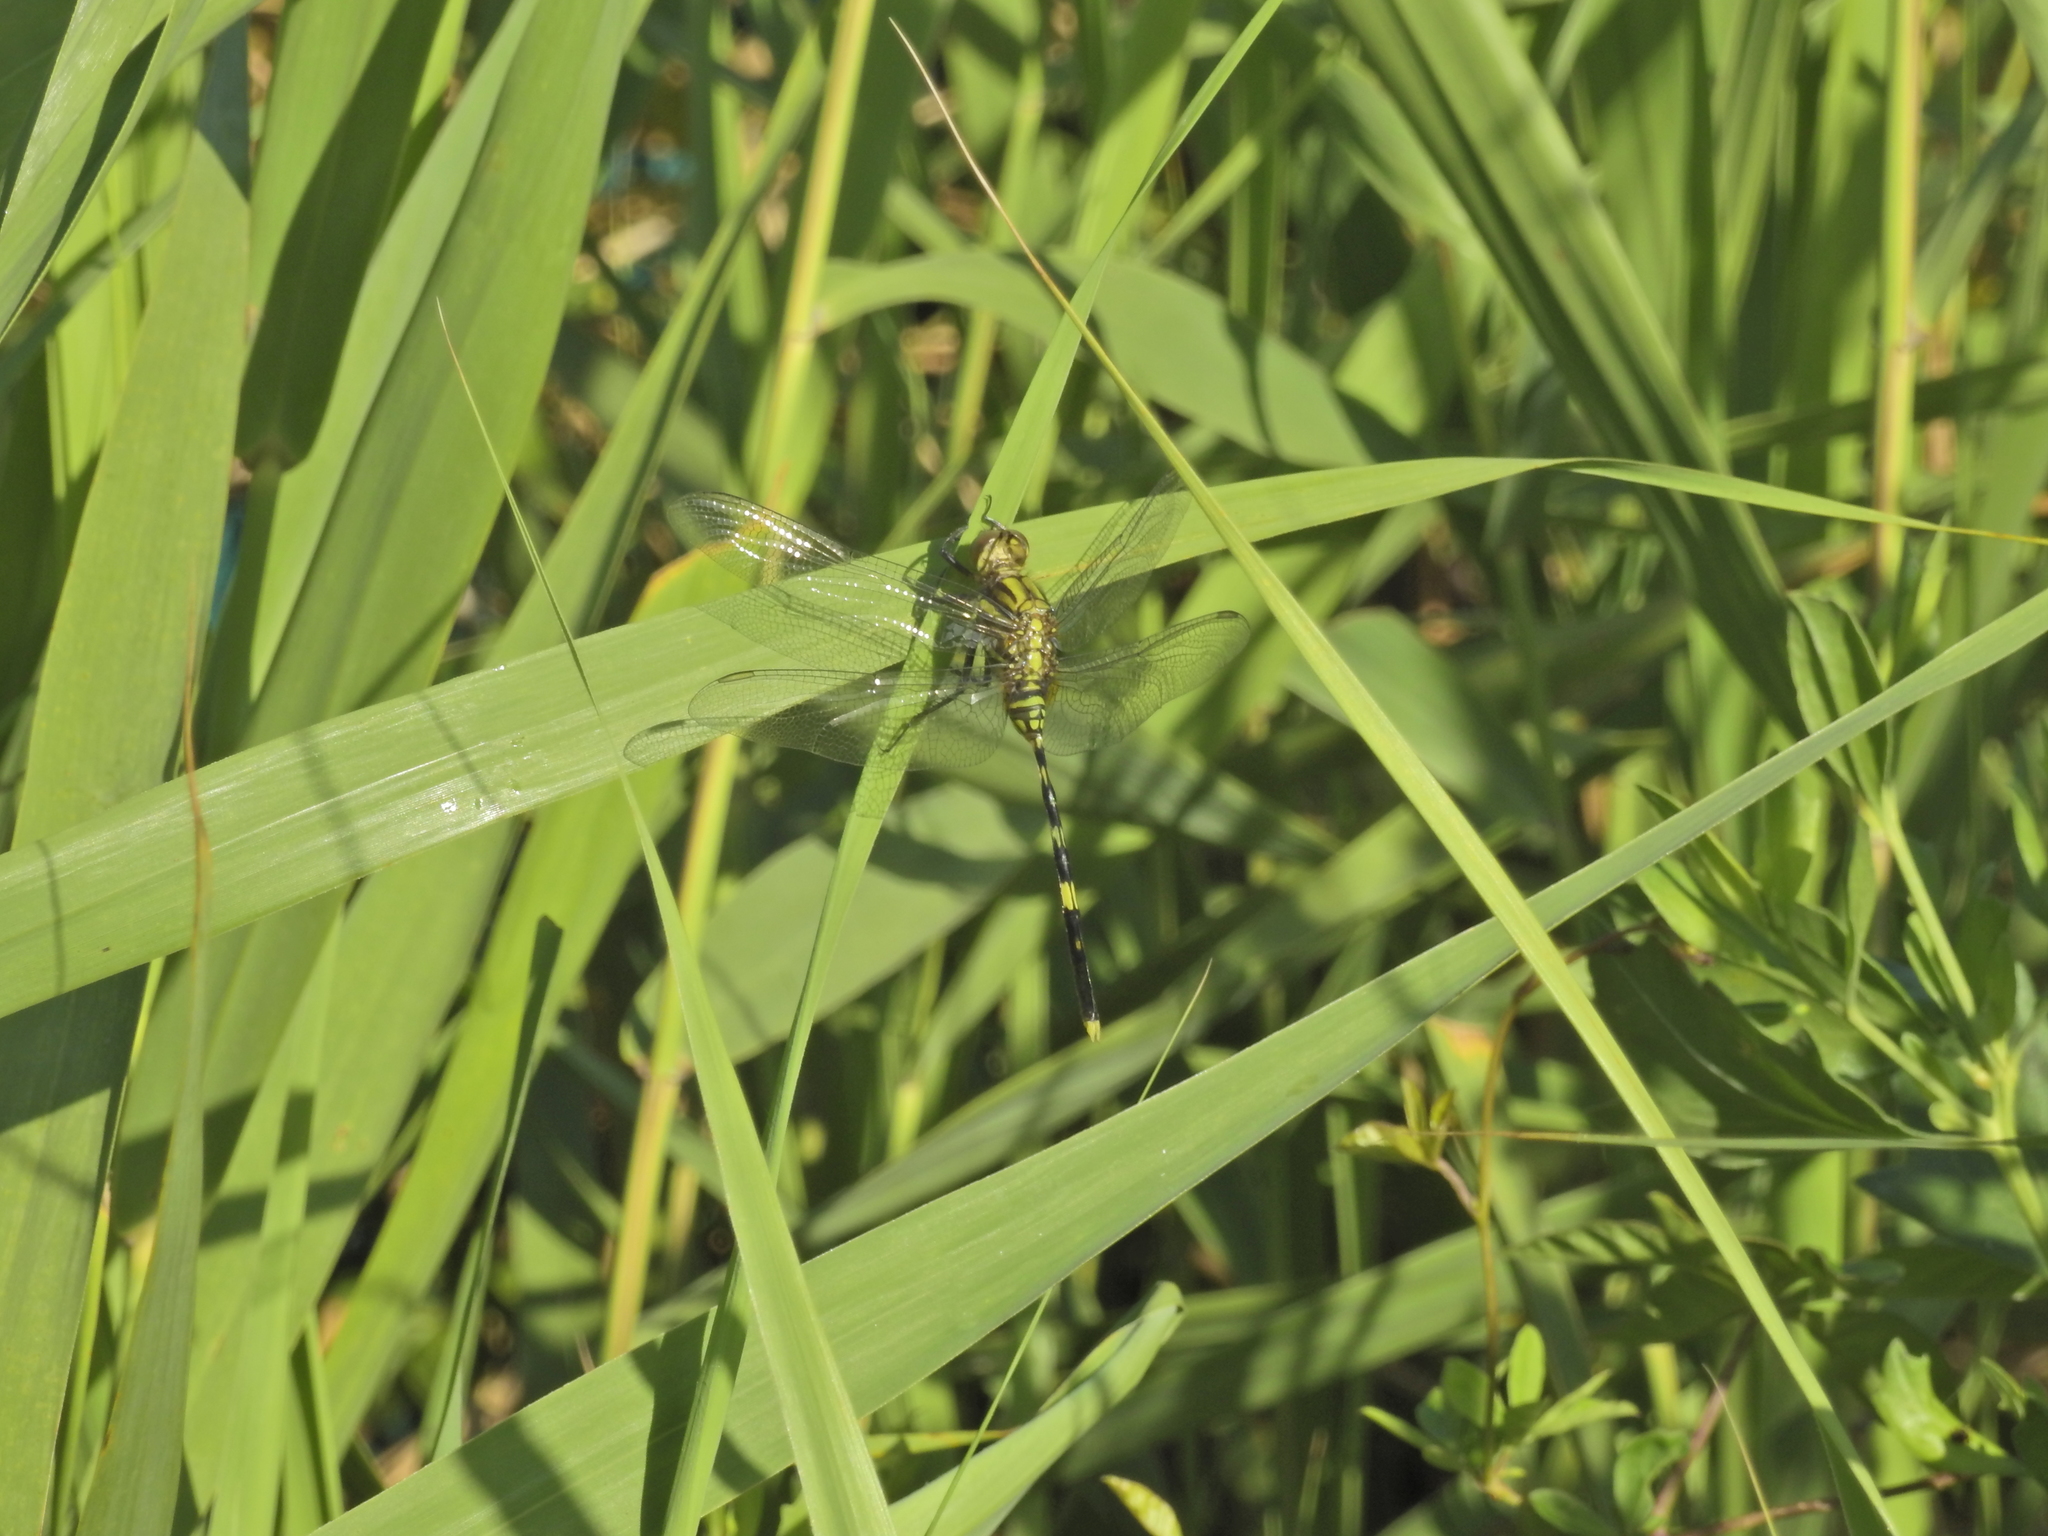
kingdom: Animalia
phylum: Arthropoda
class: Insecta
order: Odonata
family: Libellulidae
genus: Orthetrum
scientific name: Orthetrum serapia
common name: Green skimmer
